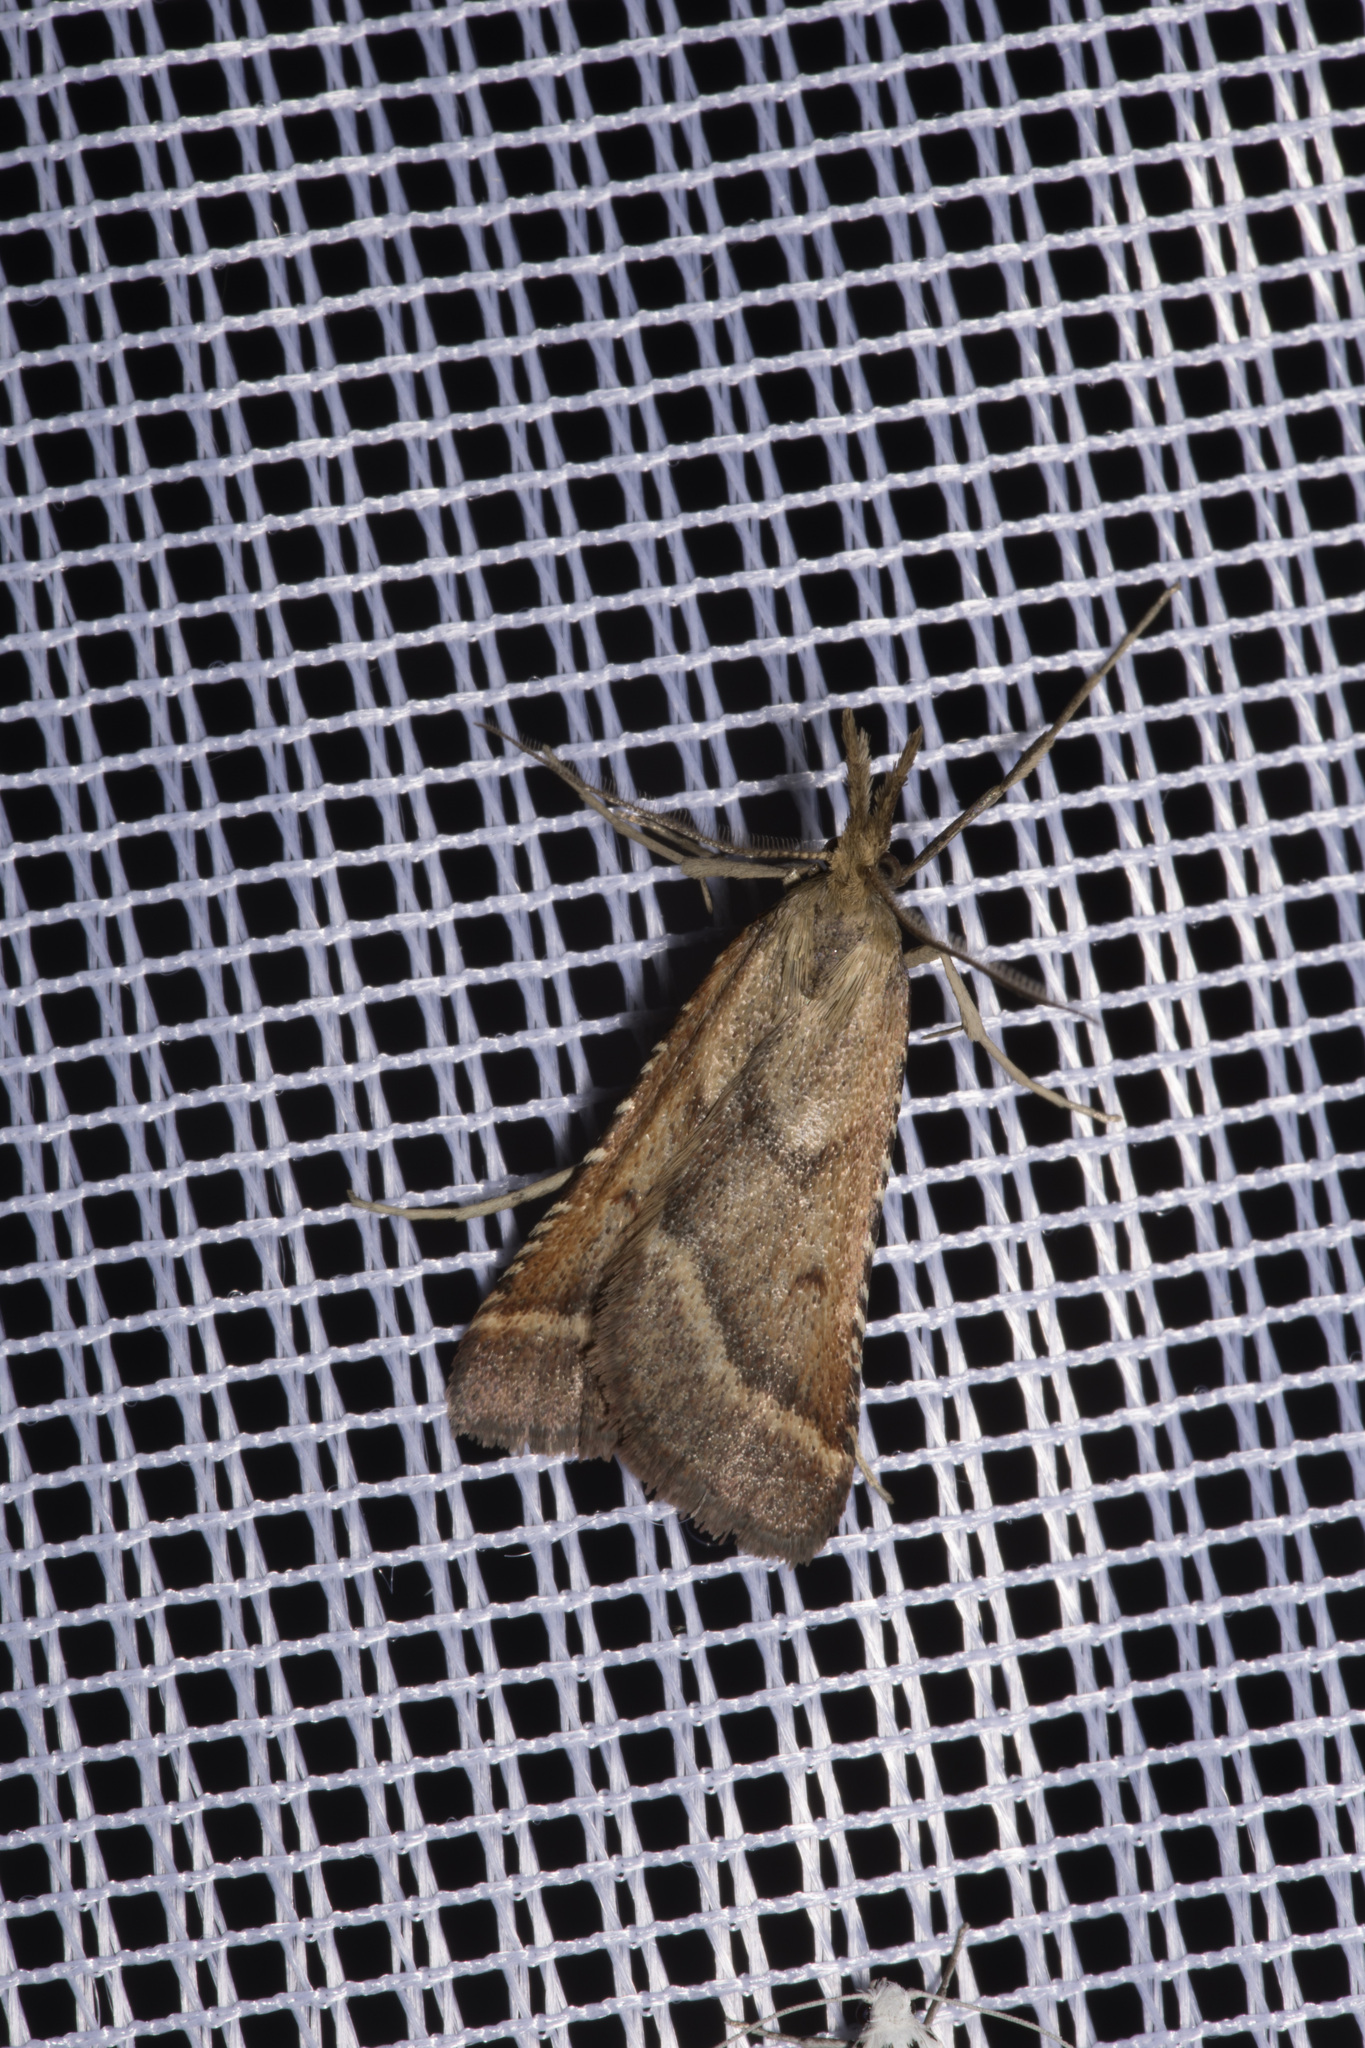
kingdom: Animalia
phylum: Arthropoda
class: Insecta
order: Lepidoptera
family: Pyralidae
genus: Synaphe
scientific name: Synaphe punctalis
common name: Long-legged tabby
